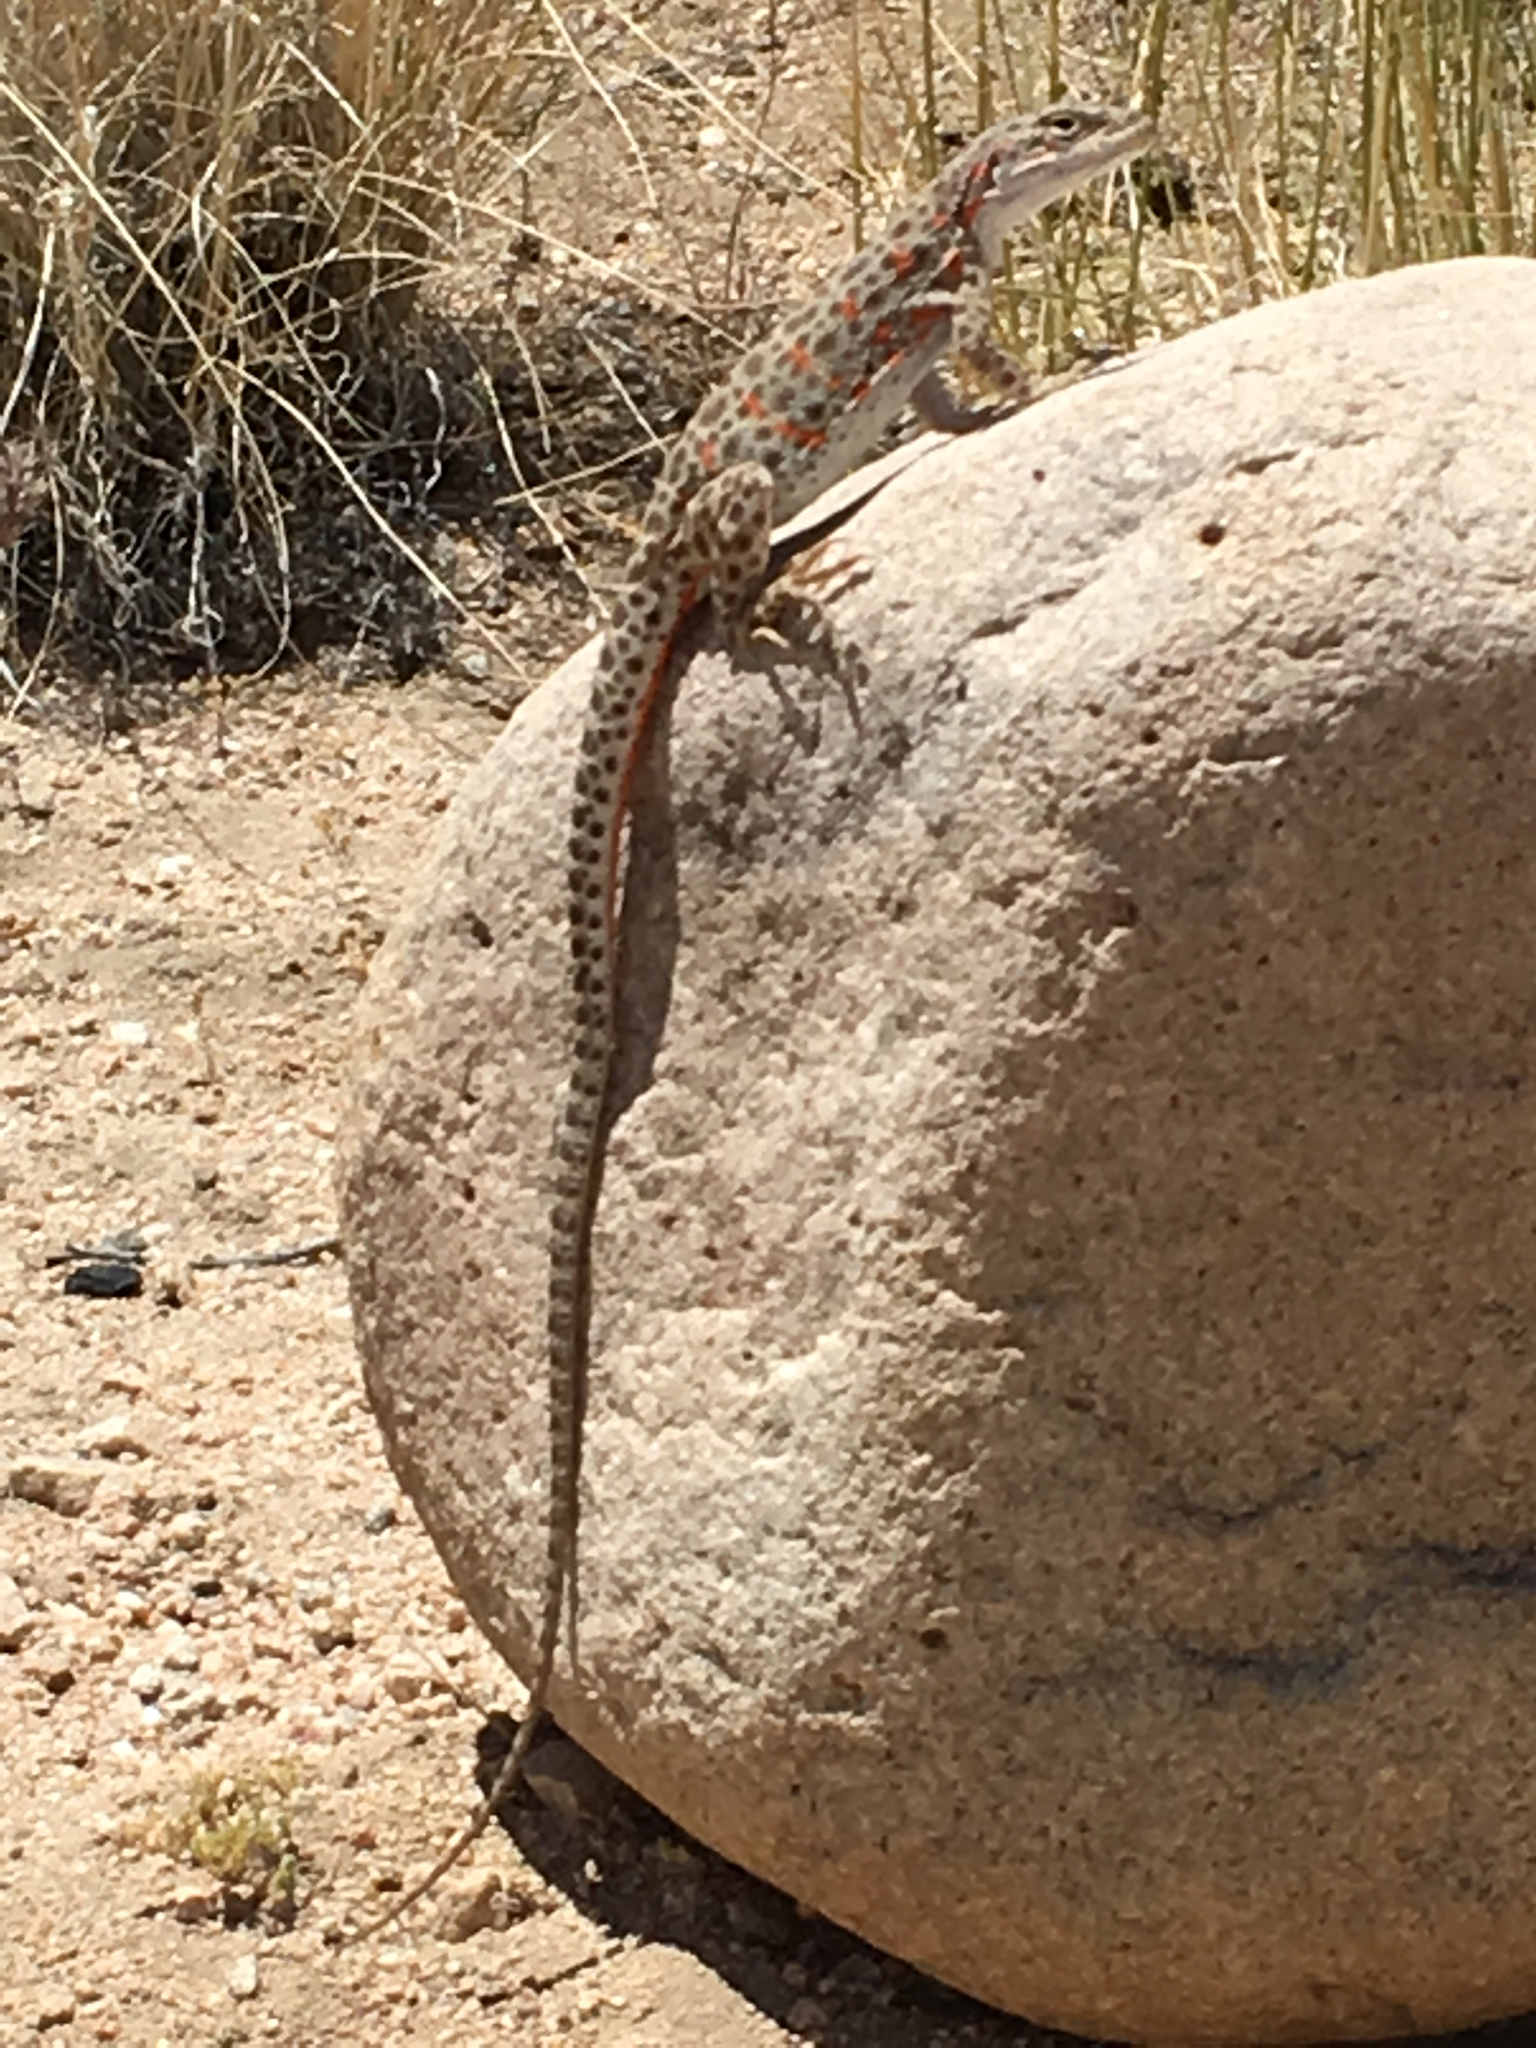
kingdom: Animalia
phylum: Chordata
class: Squamata
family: Crotaphytidae
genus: Gambelia
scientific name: Gambelia wislizenii
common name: Longnose leopard lizard
